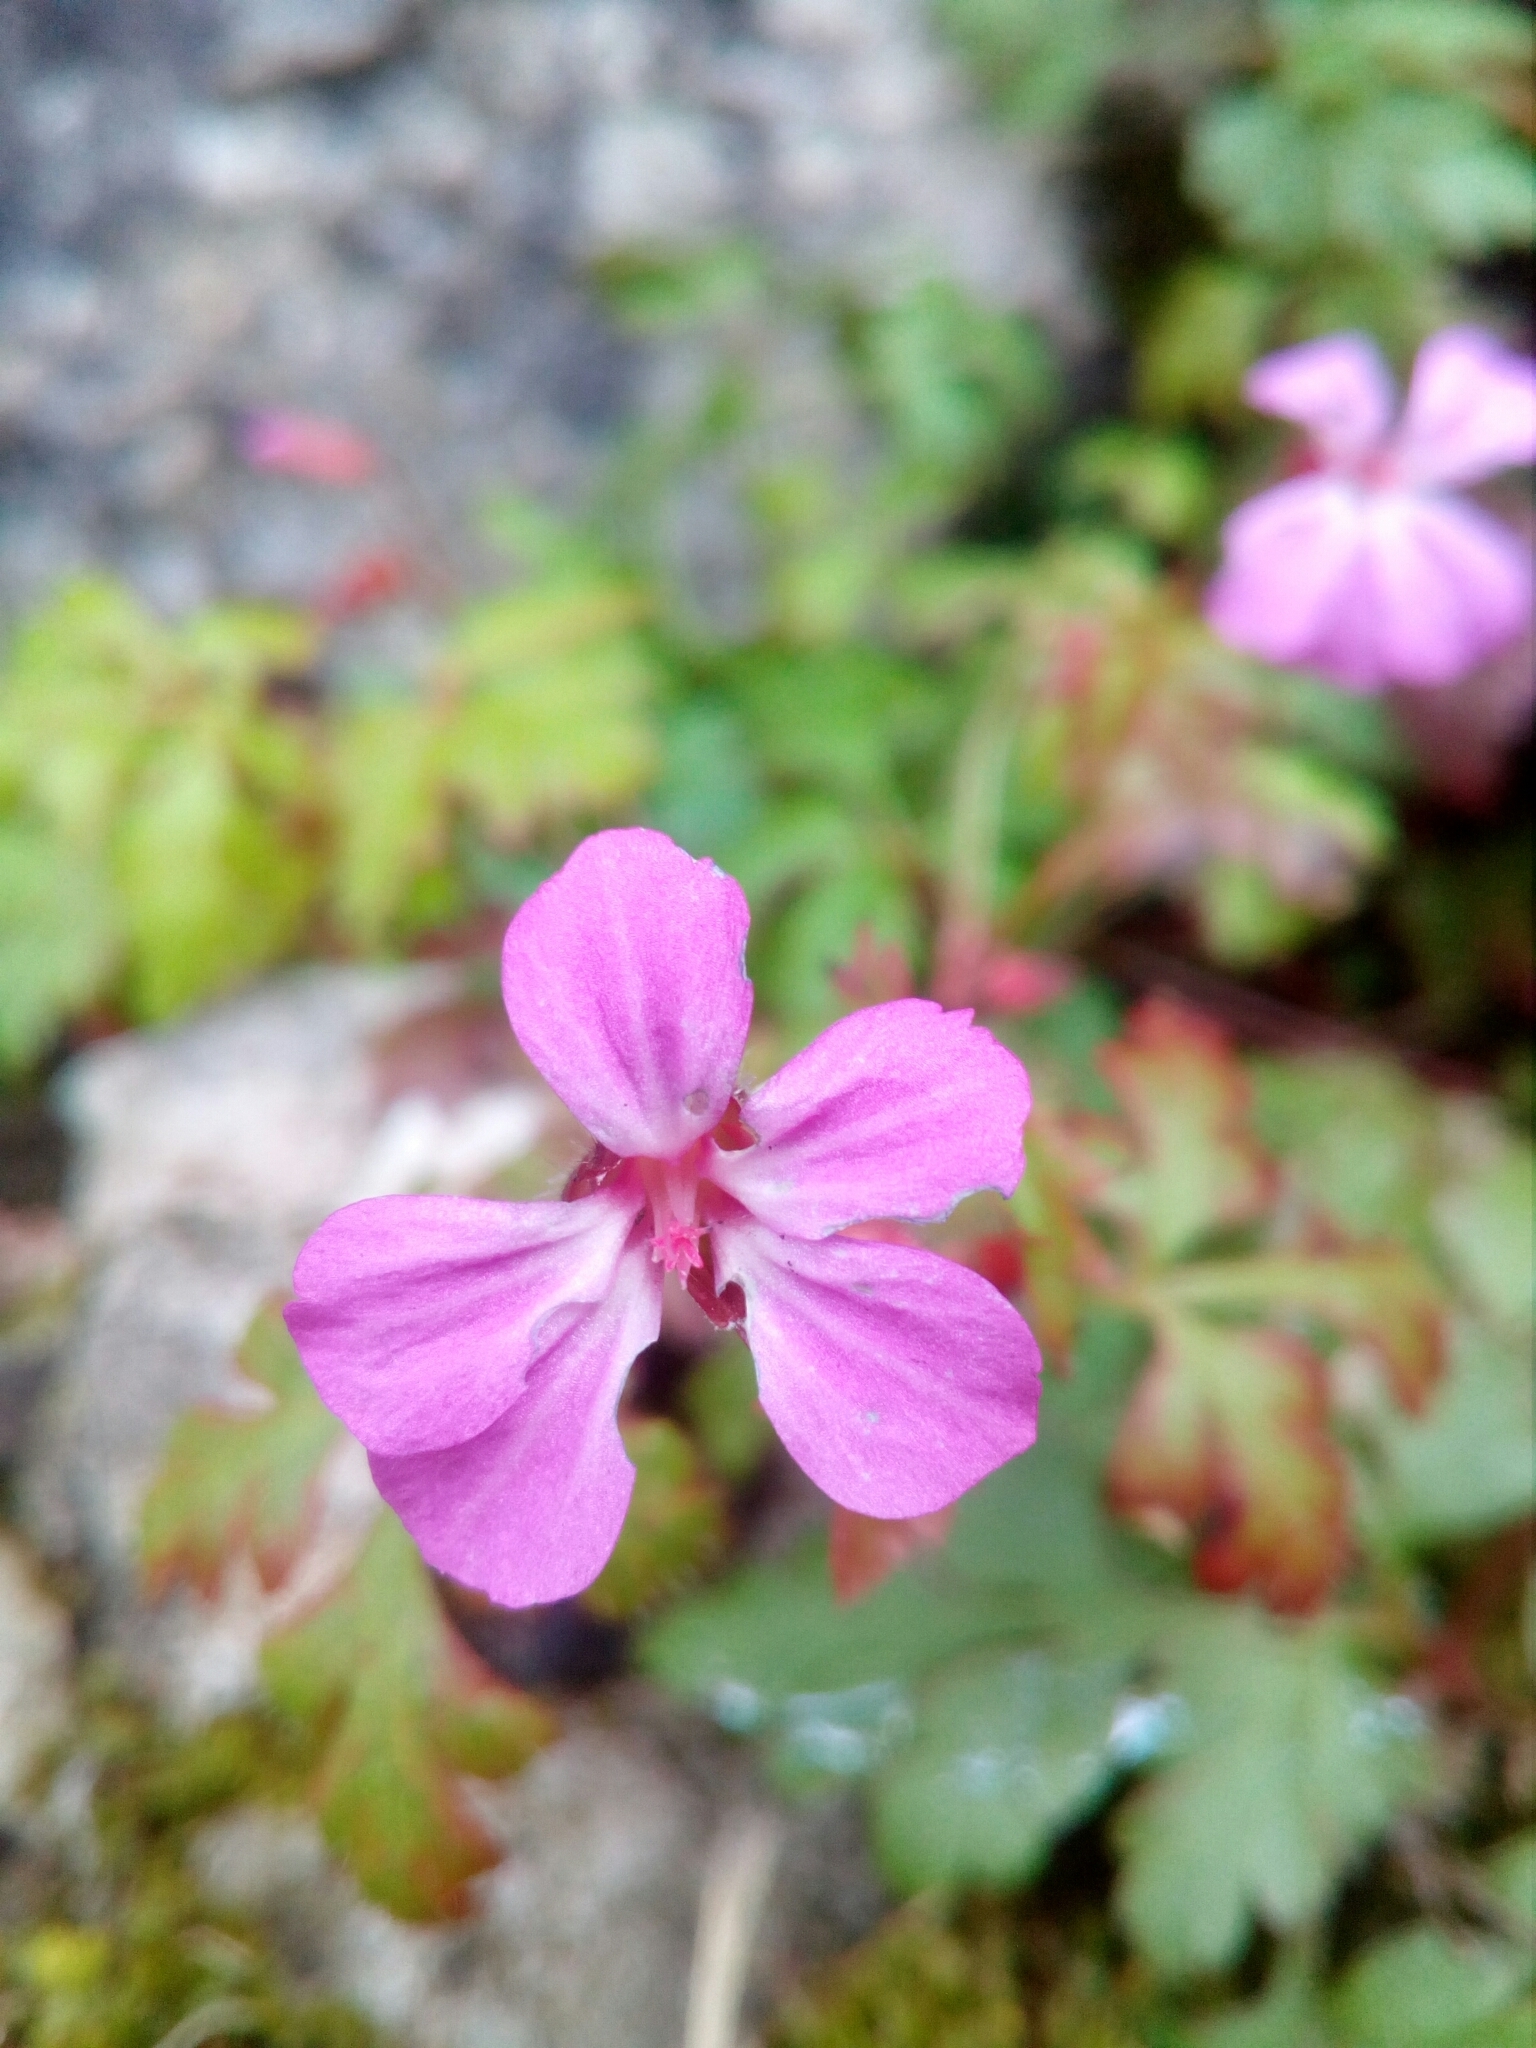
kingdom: Plantae
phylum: Tracheophyta
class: Magnoliopsida
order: Geraniales
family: Geraniaceae
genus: Geranium
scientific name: Geranium robertianum
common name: Herb-robert
